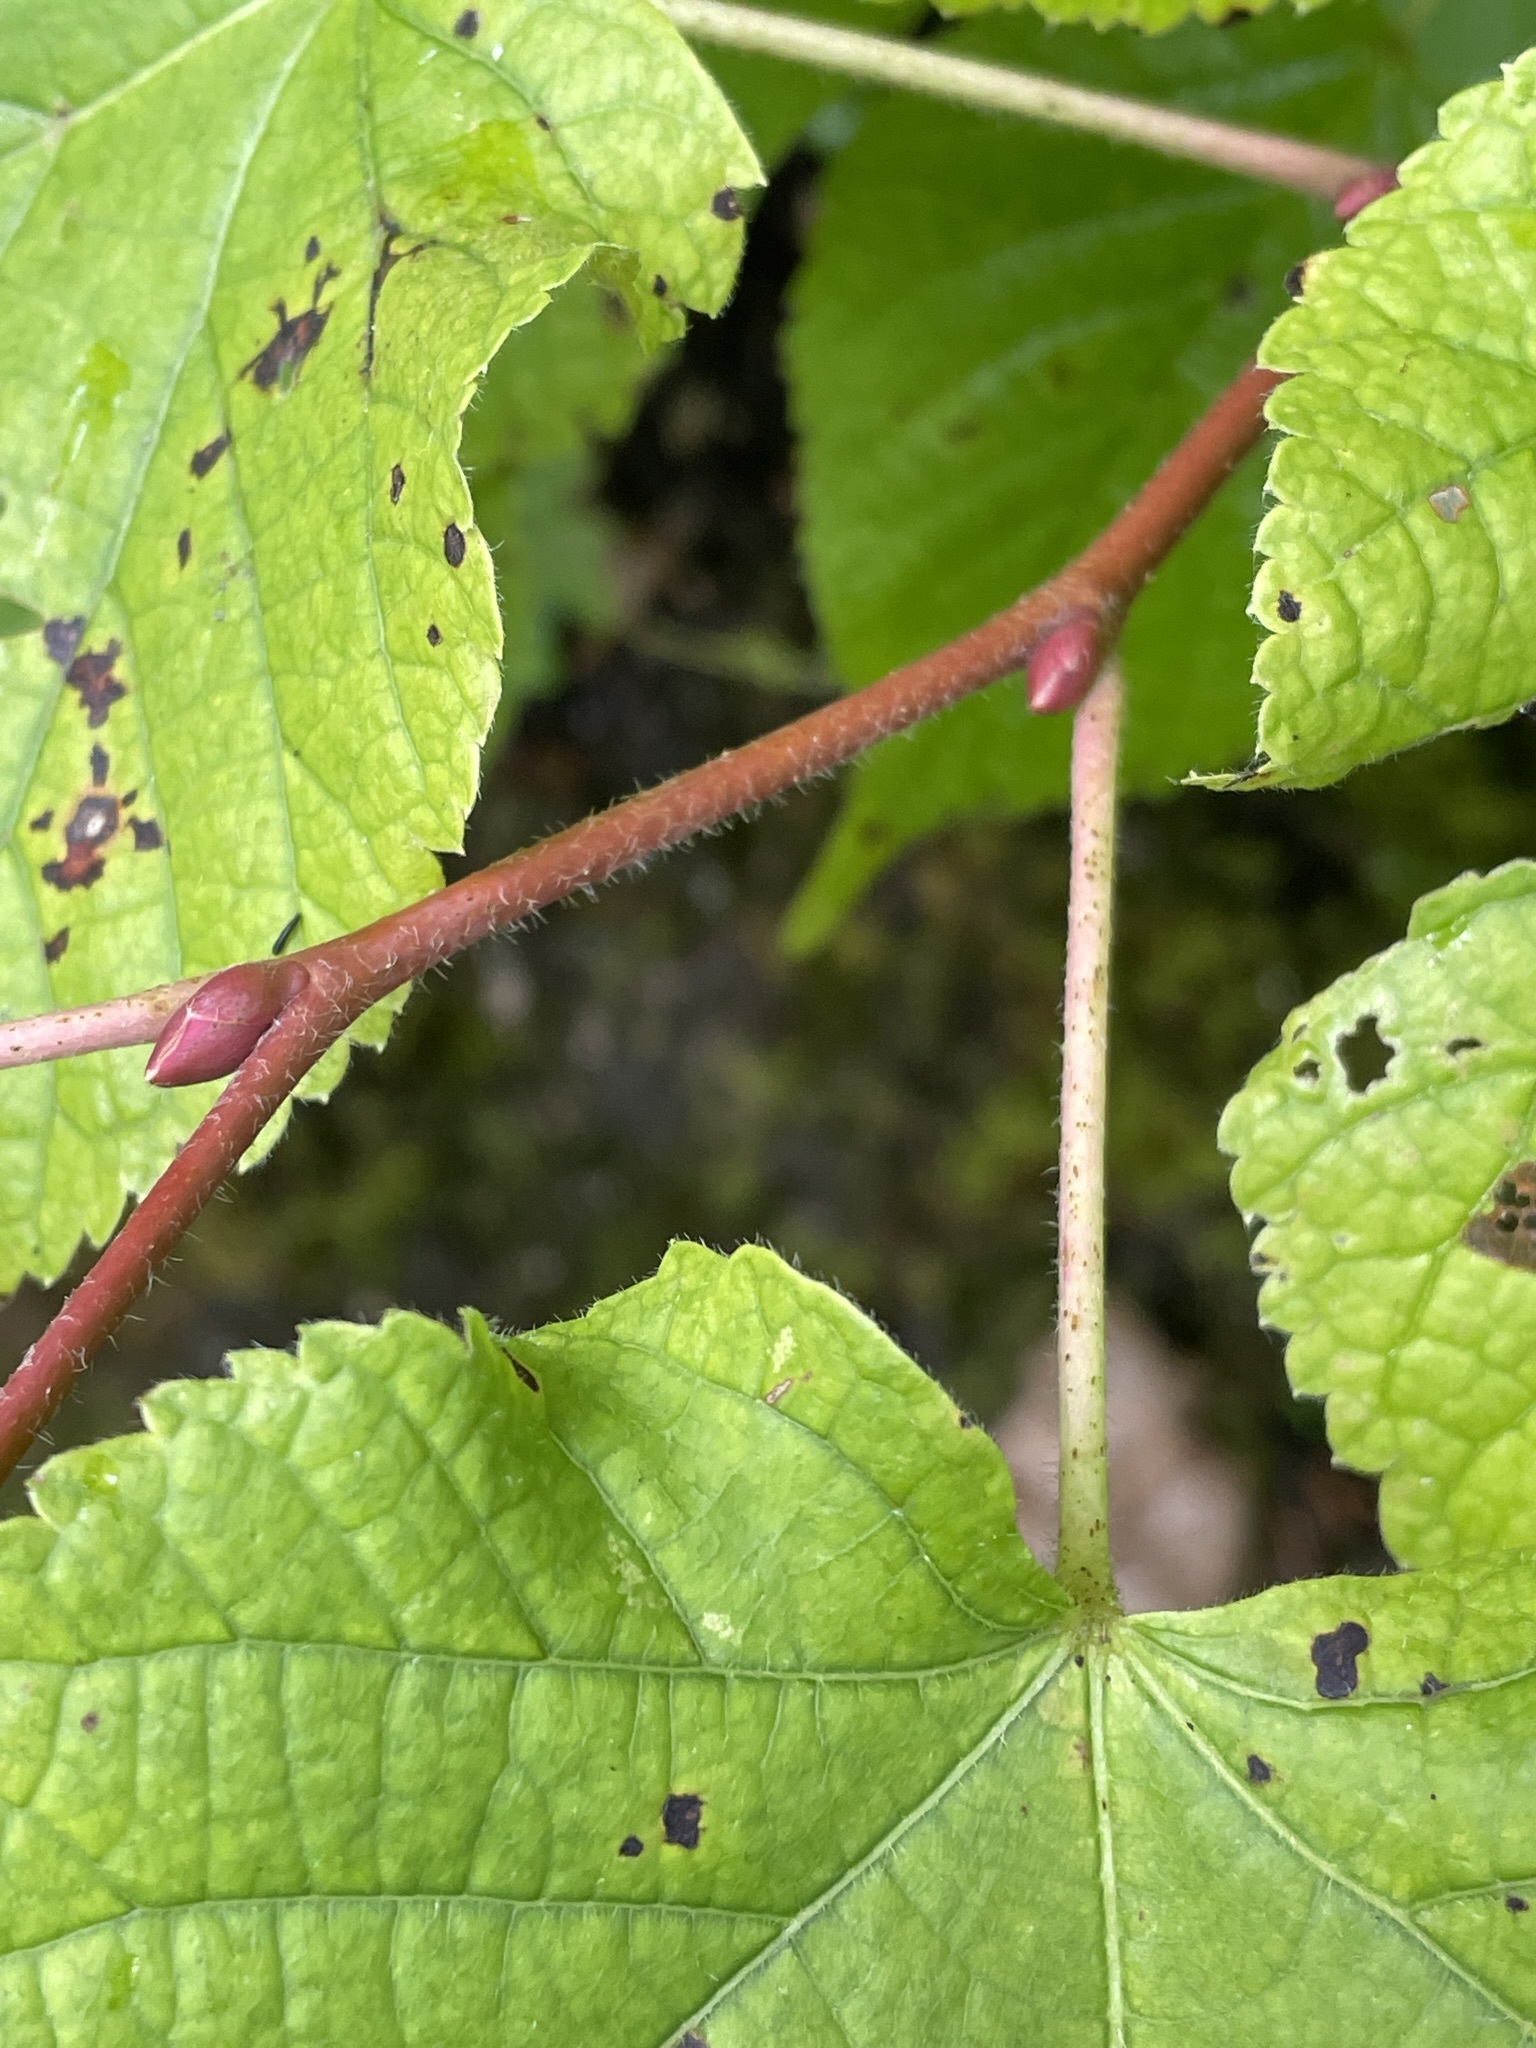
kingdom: Plantae
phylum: Tracheophyta
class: Magnoliopsida
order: Malvales
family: Malvaceae
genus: Tilia
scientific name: Tilia platyphyllos
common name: Large-leaved lime
